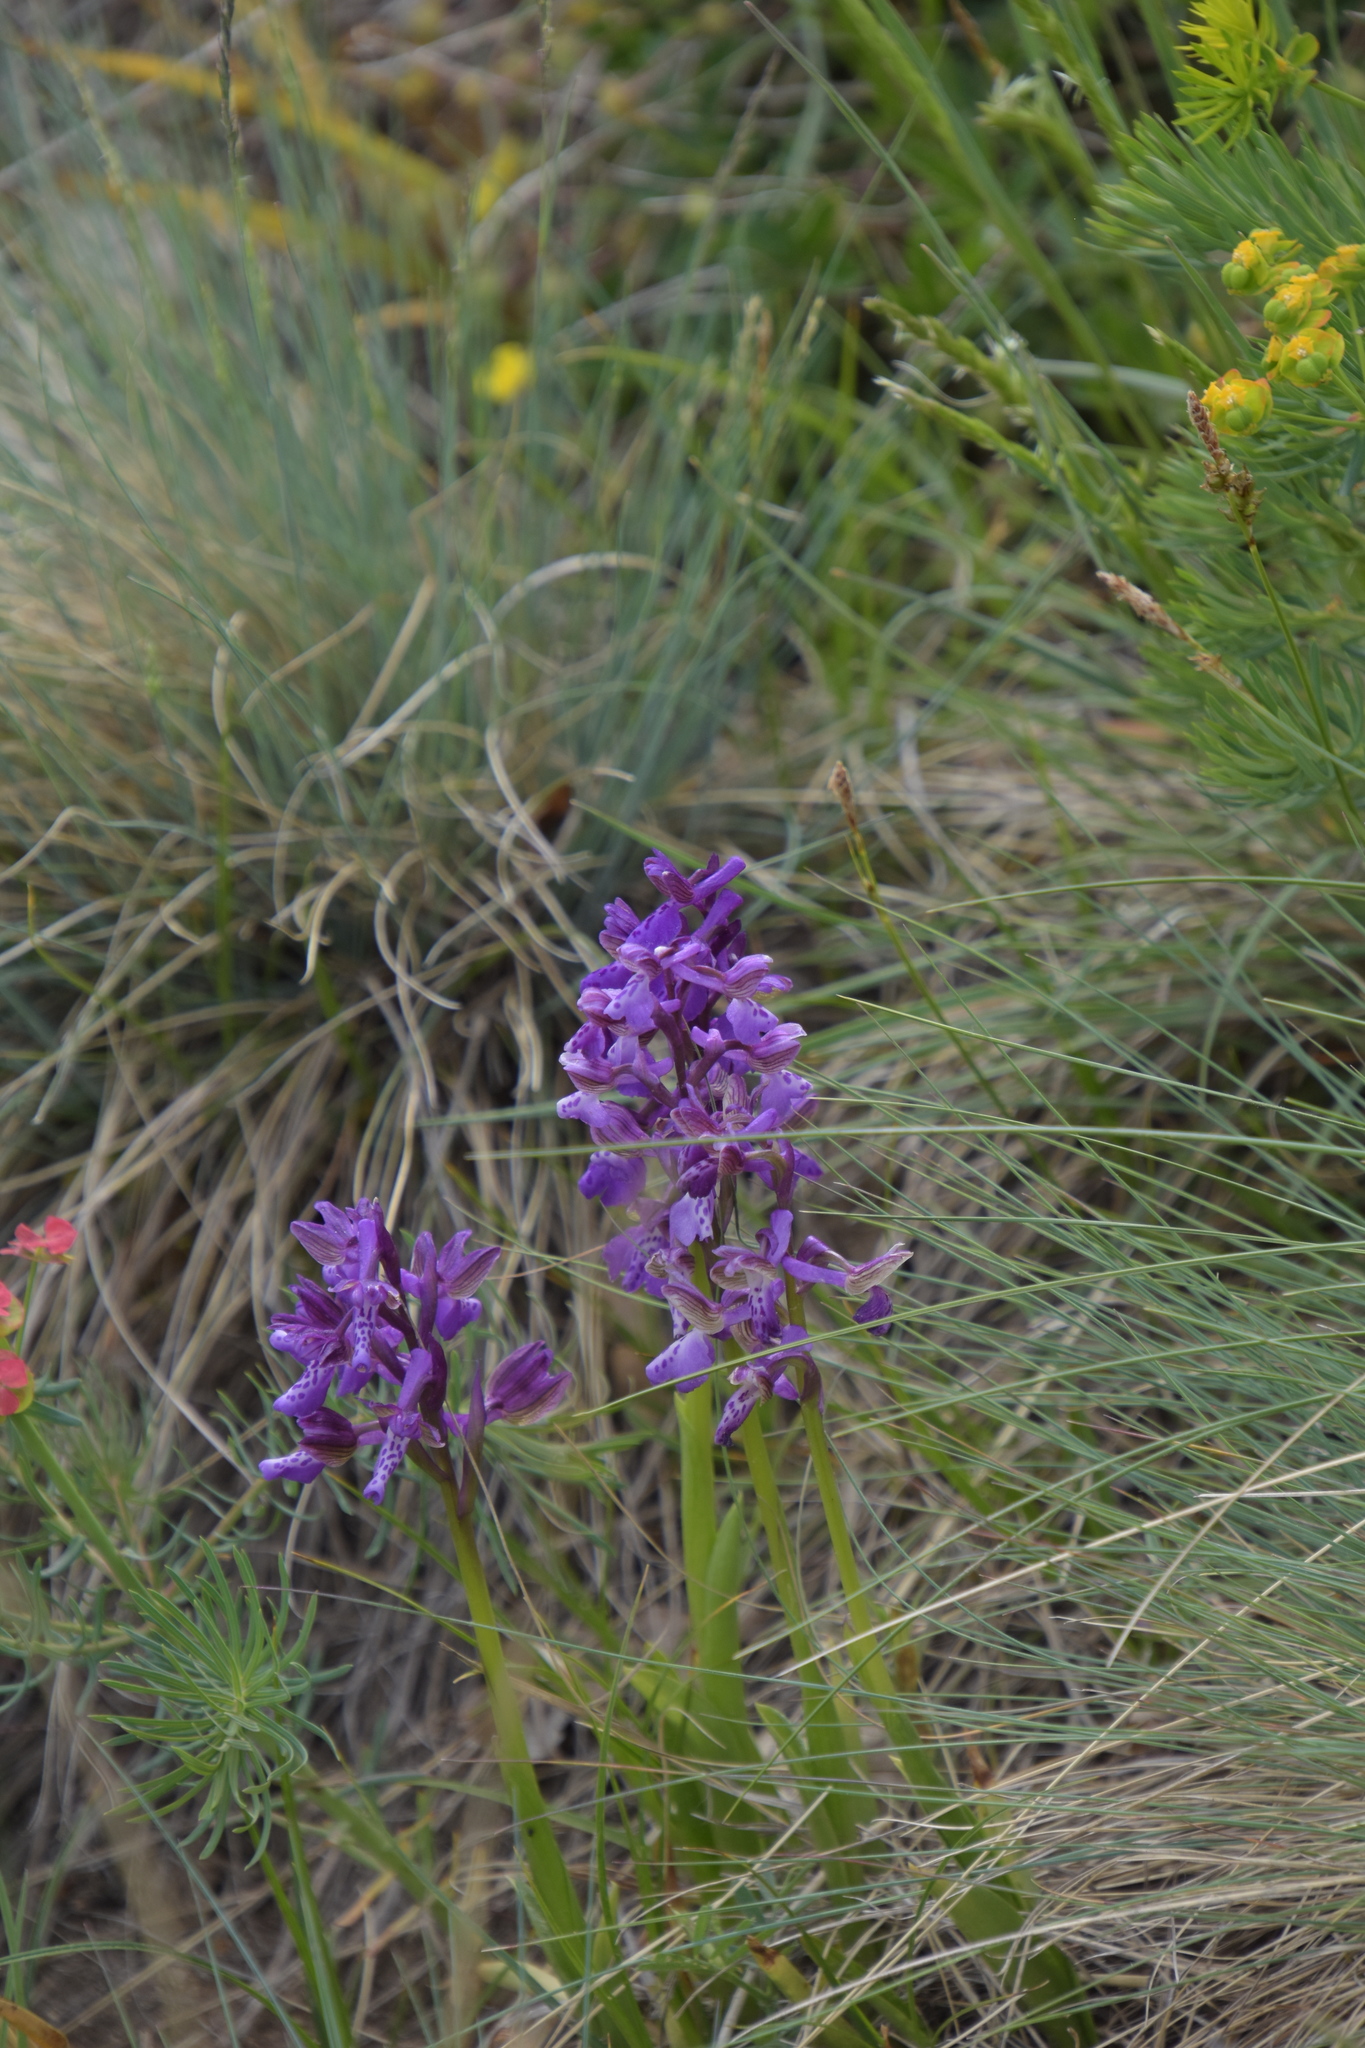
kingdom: Plantae
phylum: Tracheophyta
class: Liliopsida
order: Asparagales
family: Orchidaceae
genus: Anacamptis
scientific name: Anacamptis morio
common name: Green-winged orchid
